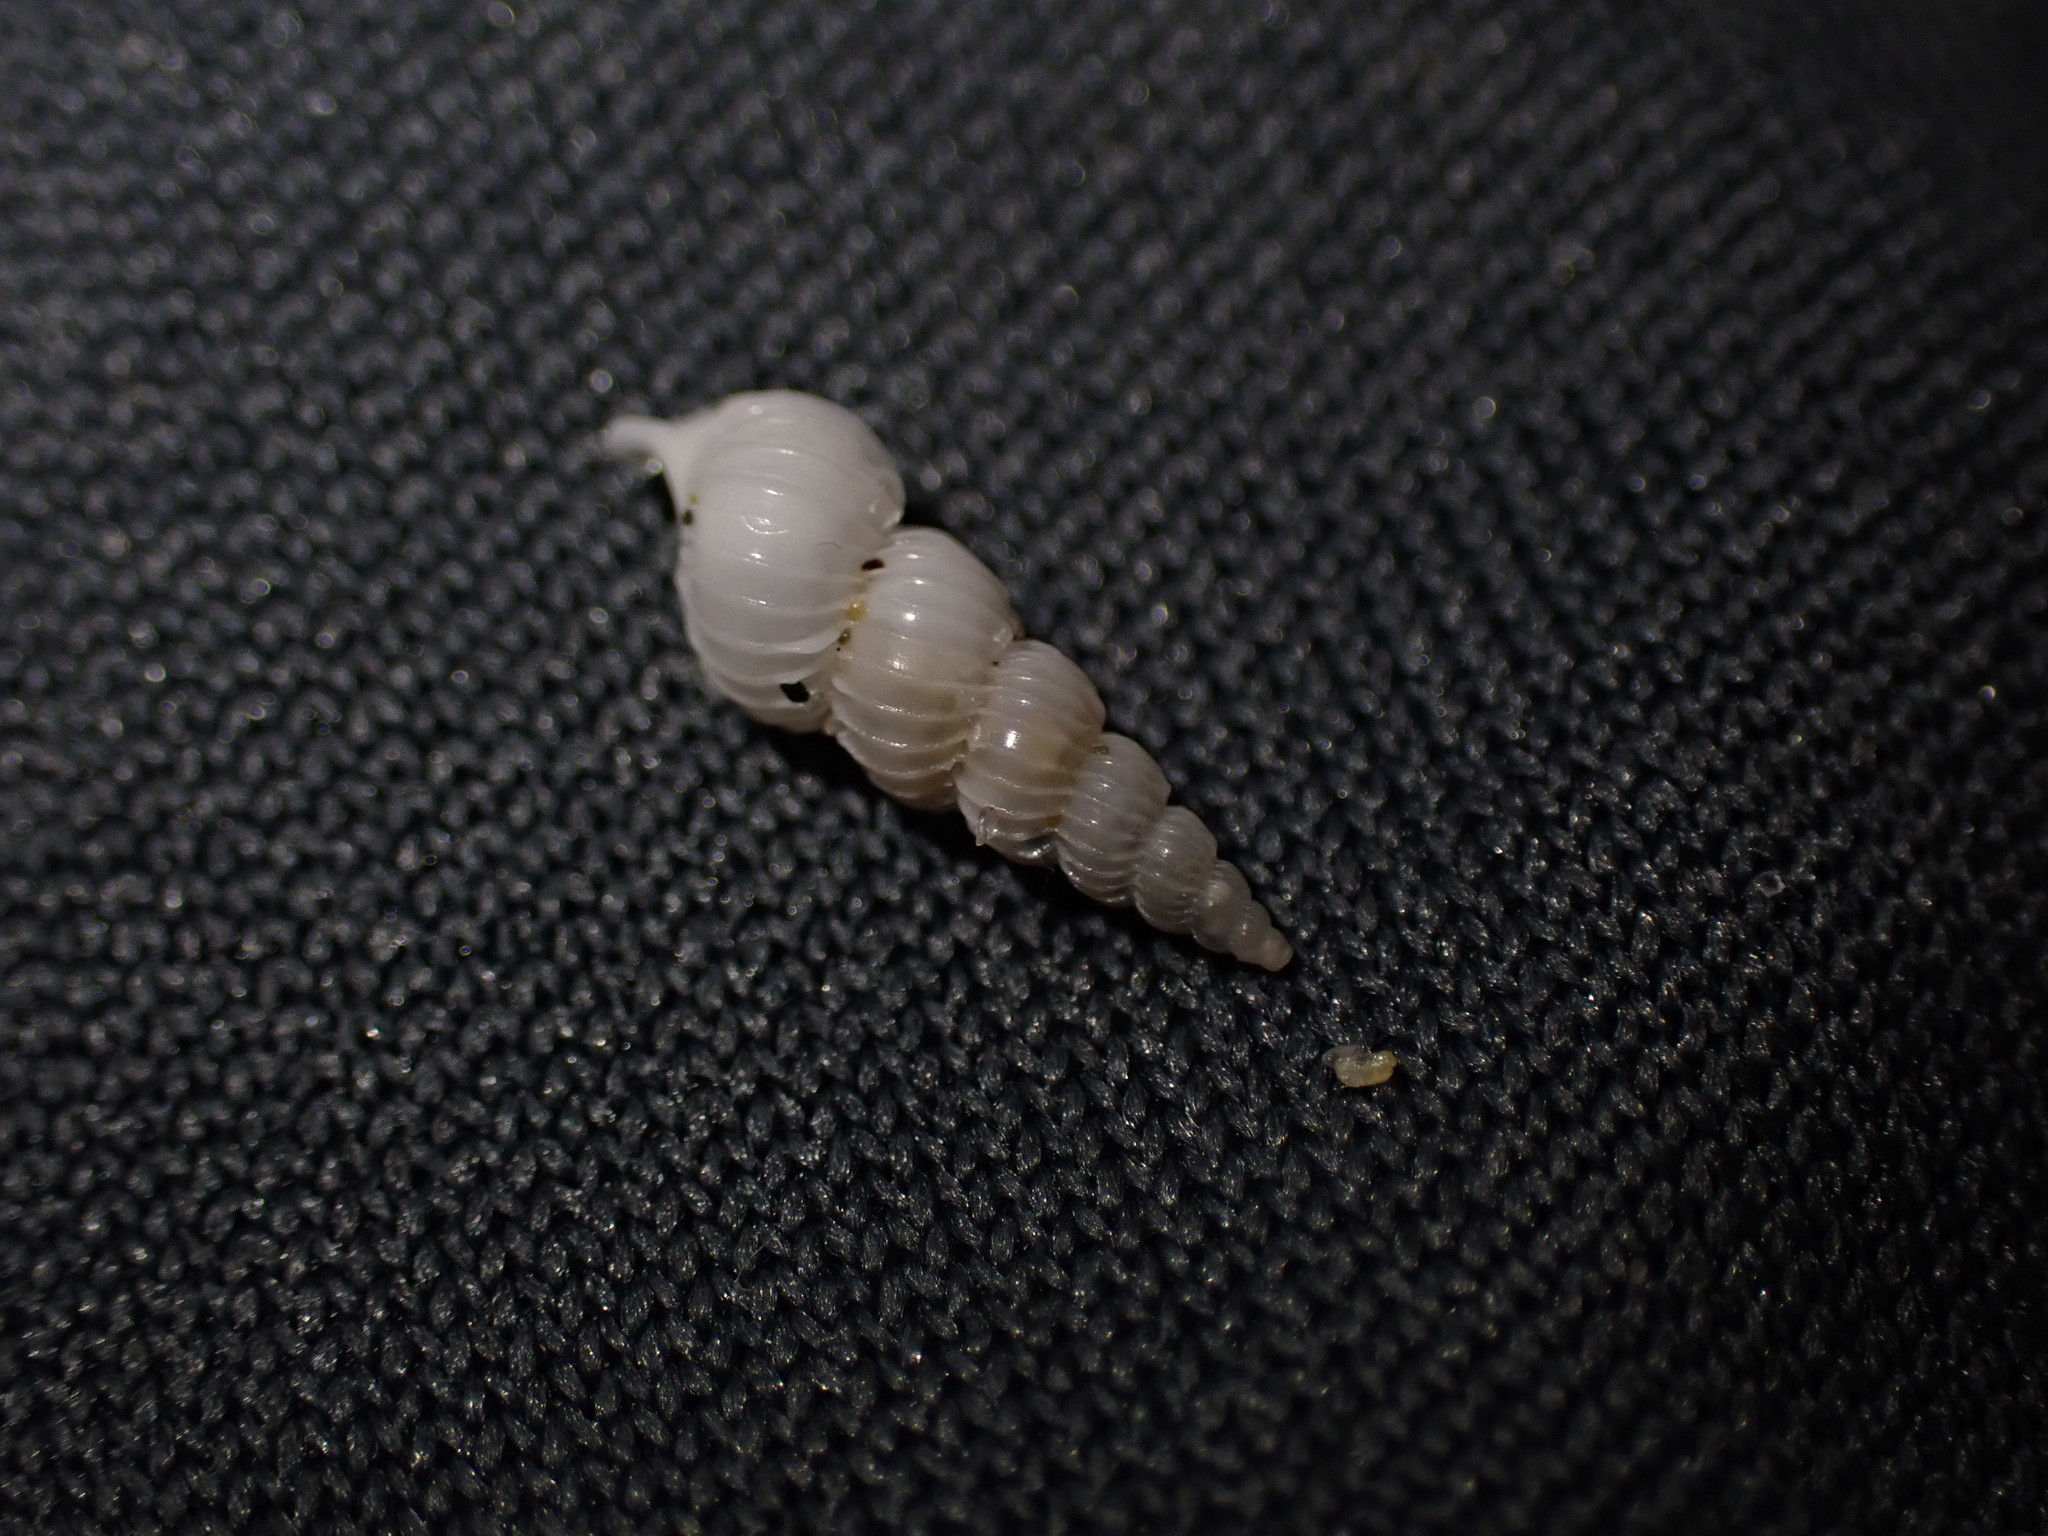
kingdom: Animalia
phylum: Mollusca
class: Gastropoda
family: Epitoniidae
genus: Epitonium
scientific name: Epitonium jukesianum
